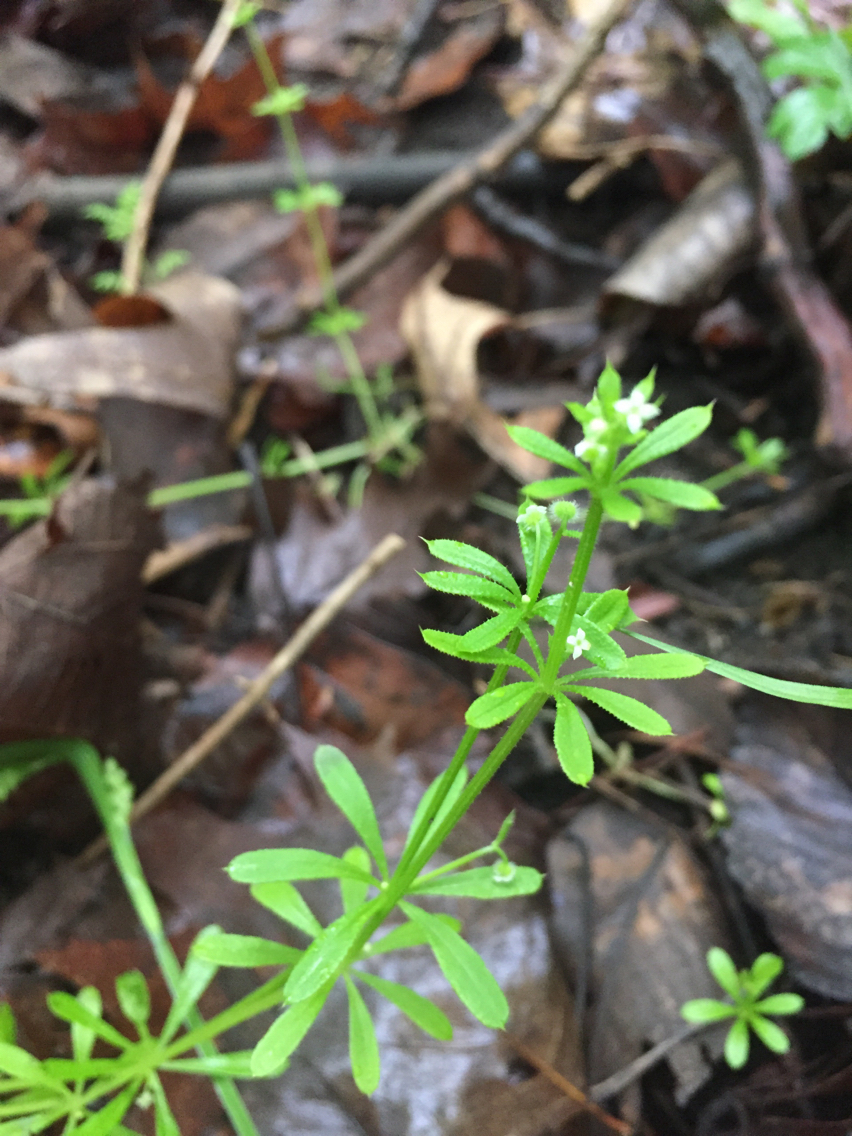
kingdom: Plantae
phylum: Tracheophyta
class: Magnoliopsida
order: Gentianales
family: Rubiaceae
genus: Galium
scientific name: Galium aparine
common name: Cleavers
